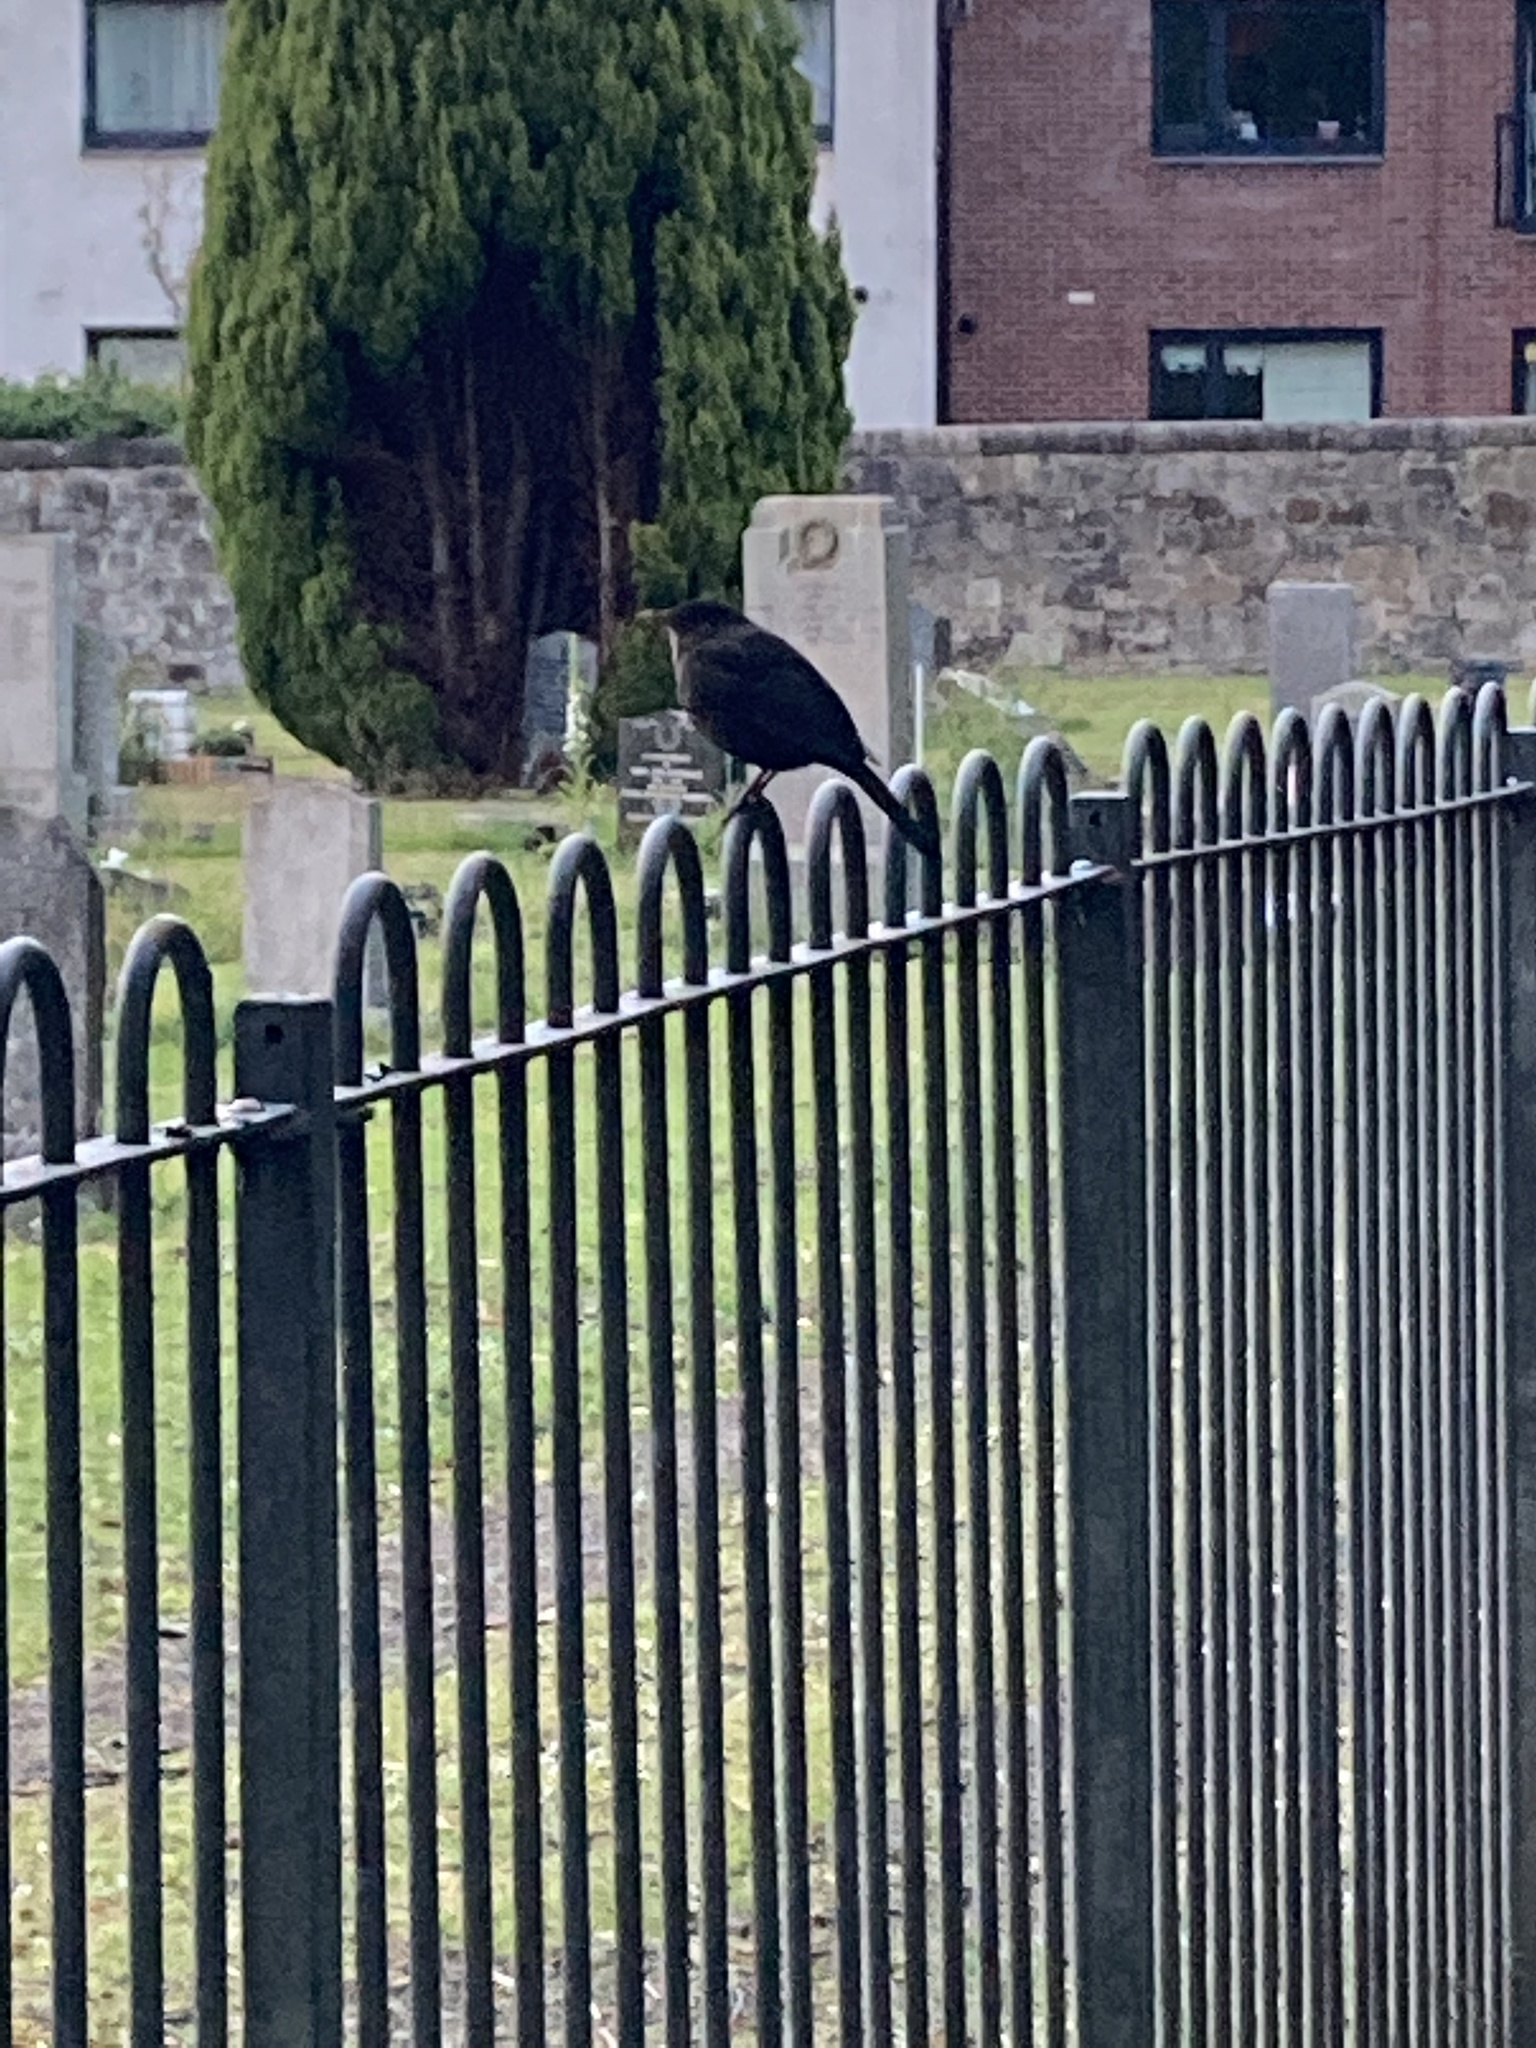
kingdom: Animalia
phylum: Chordata
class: Aves
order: Passeriformes
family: Turdidae
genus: Turdus
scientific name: Turdus merula
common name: Common blackbird
